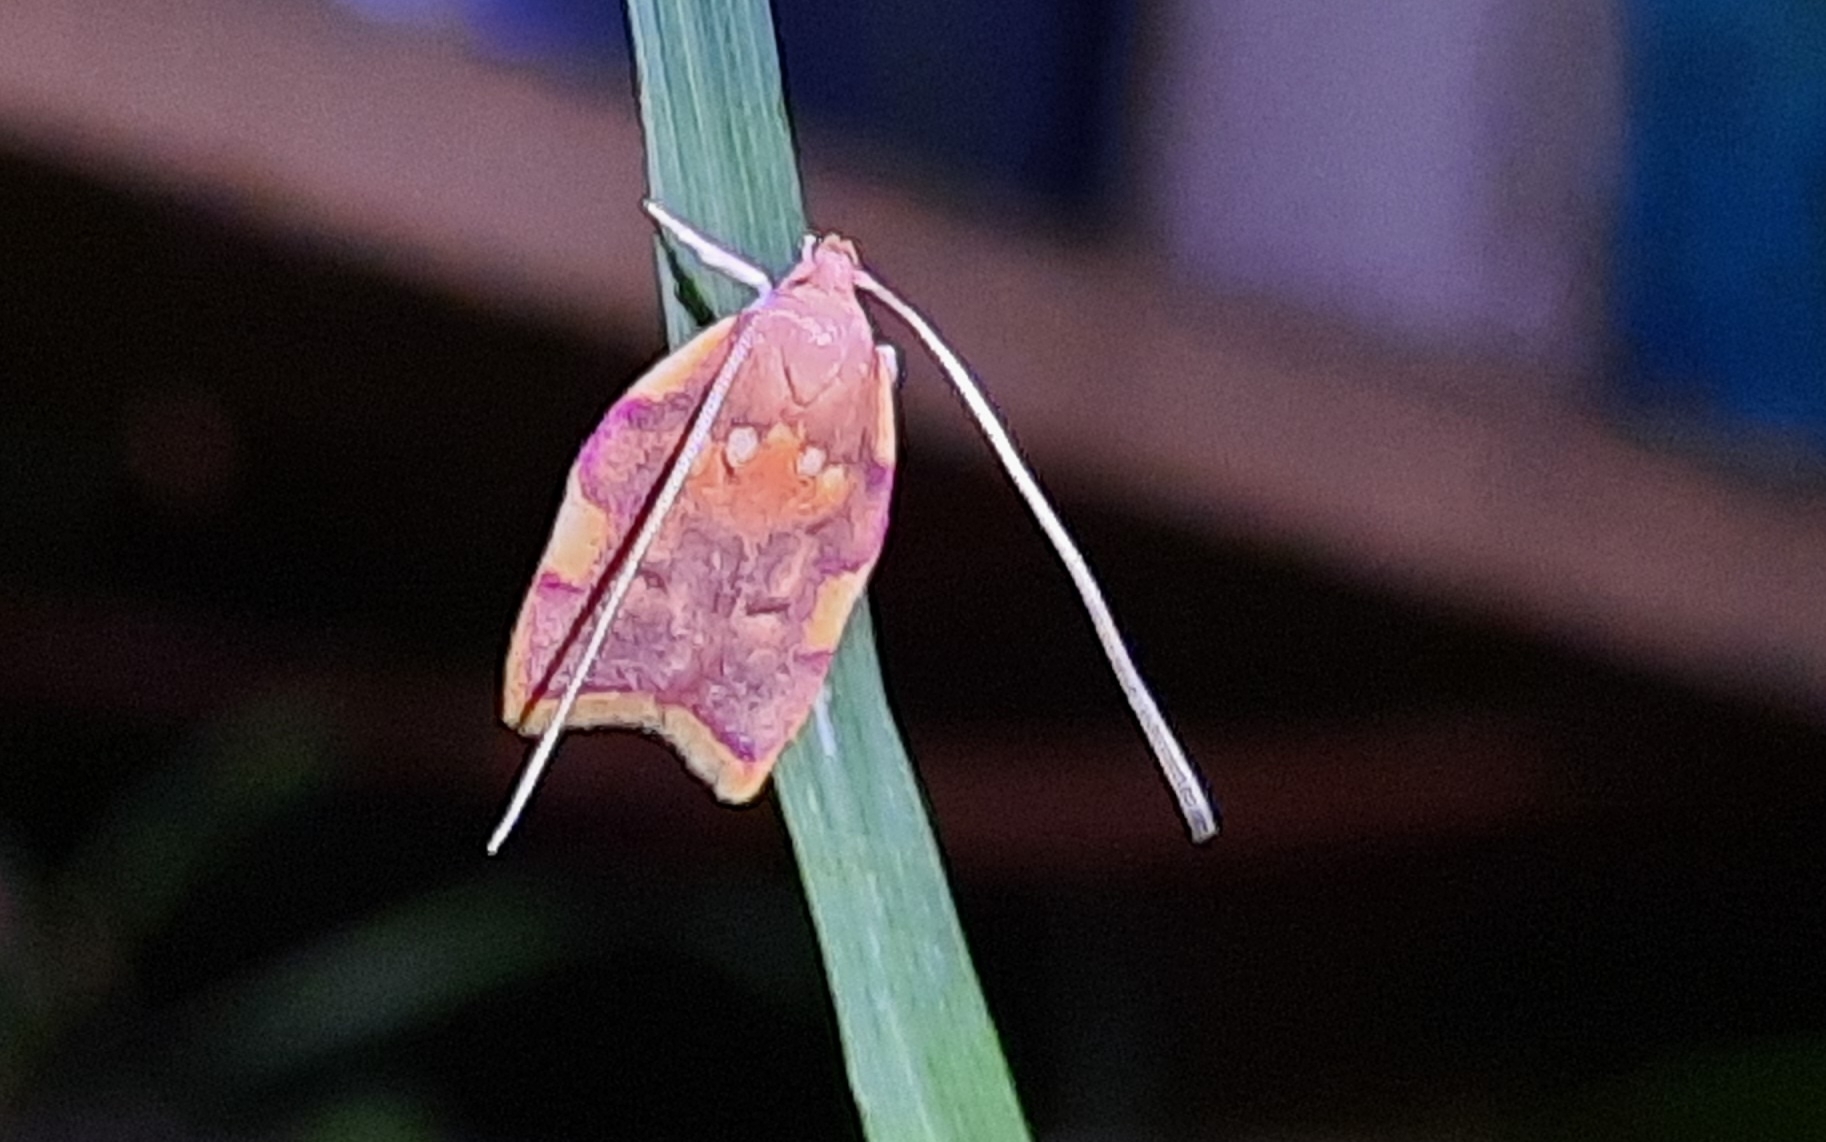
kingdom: Animalia
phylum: Arthropoda
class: Insecta
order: Lepidoptera
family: Peleopodidae
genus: Carcina
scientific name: Carcina quercana
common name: Moth
